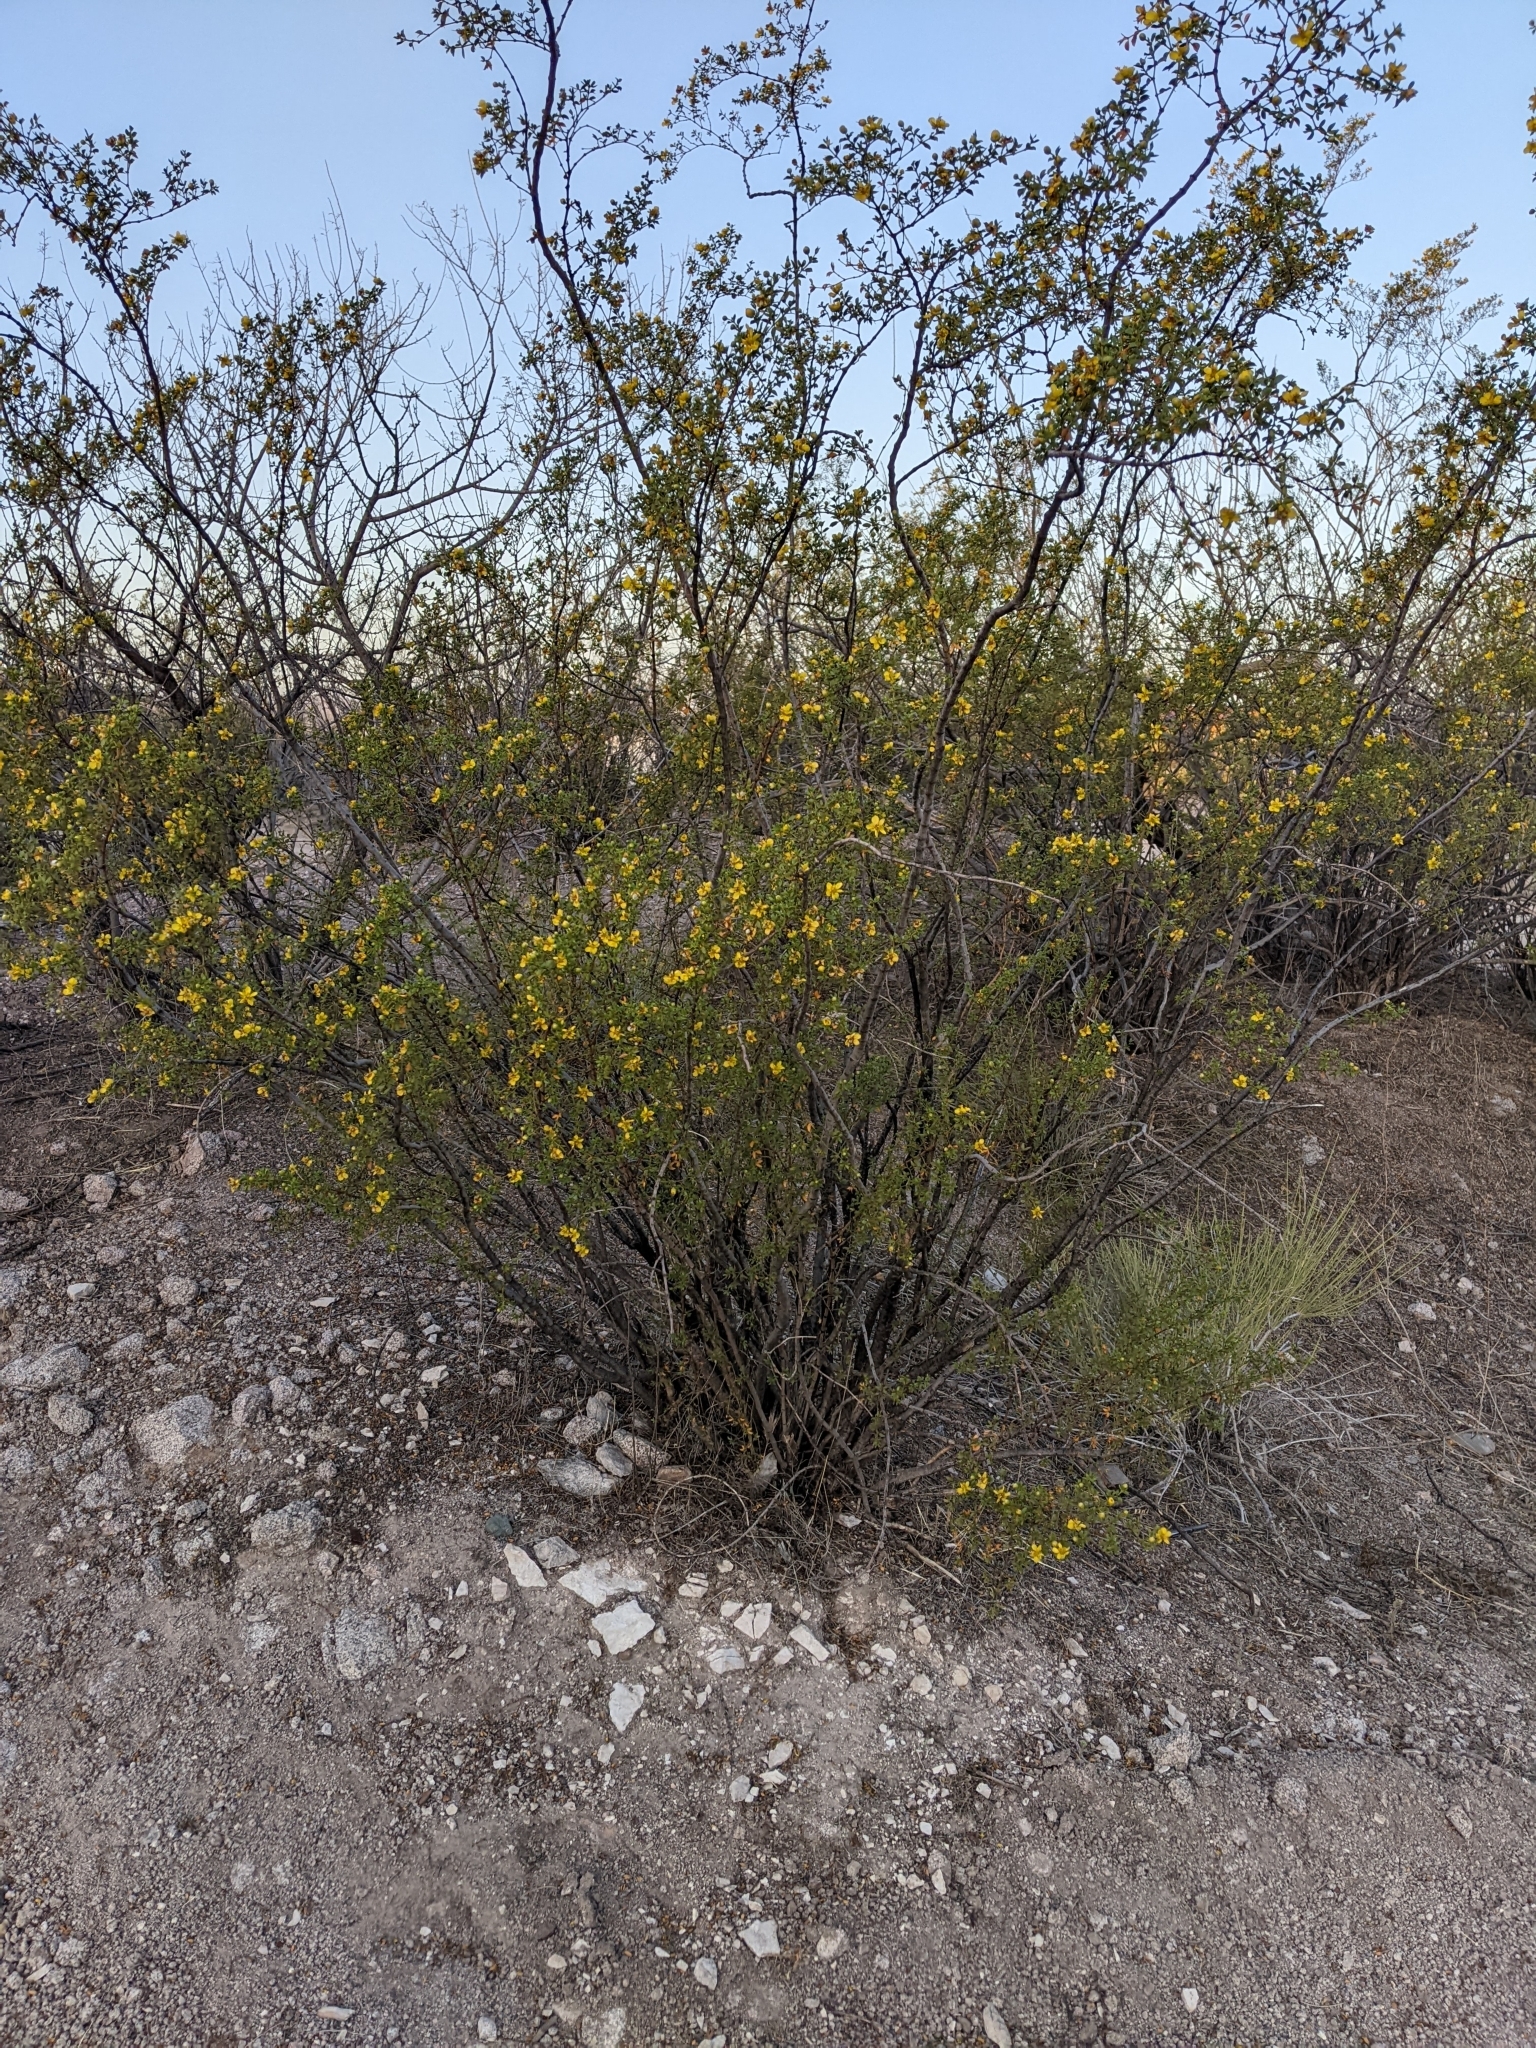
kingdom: Plantae
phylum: Tracheophyta
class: Magnoliopsida
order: Zygophyllales
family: Zygophyllaceae
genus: Larrea
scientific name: Larrea tridentata
